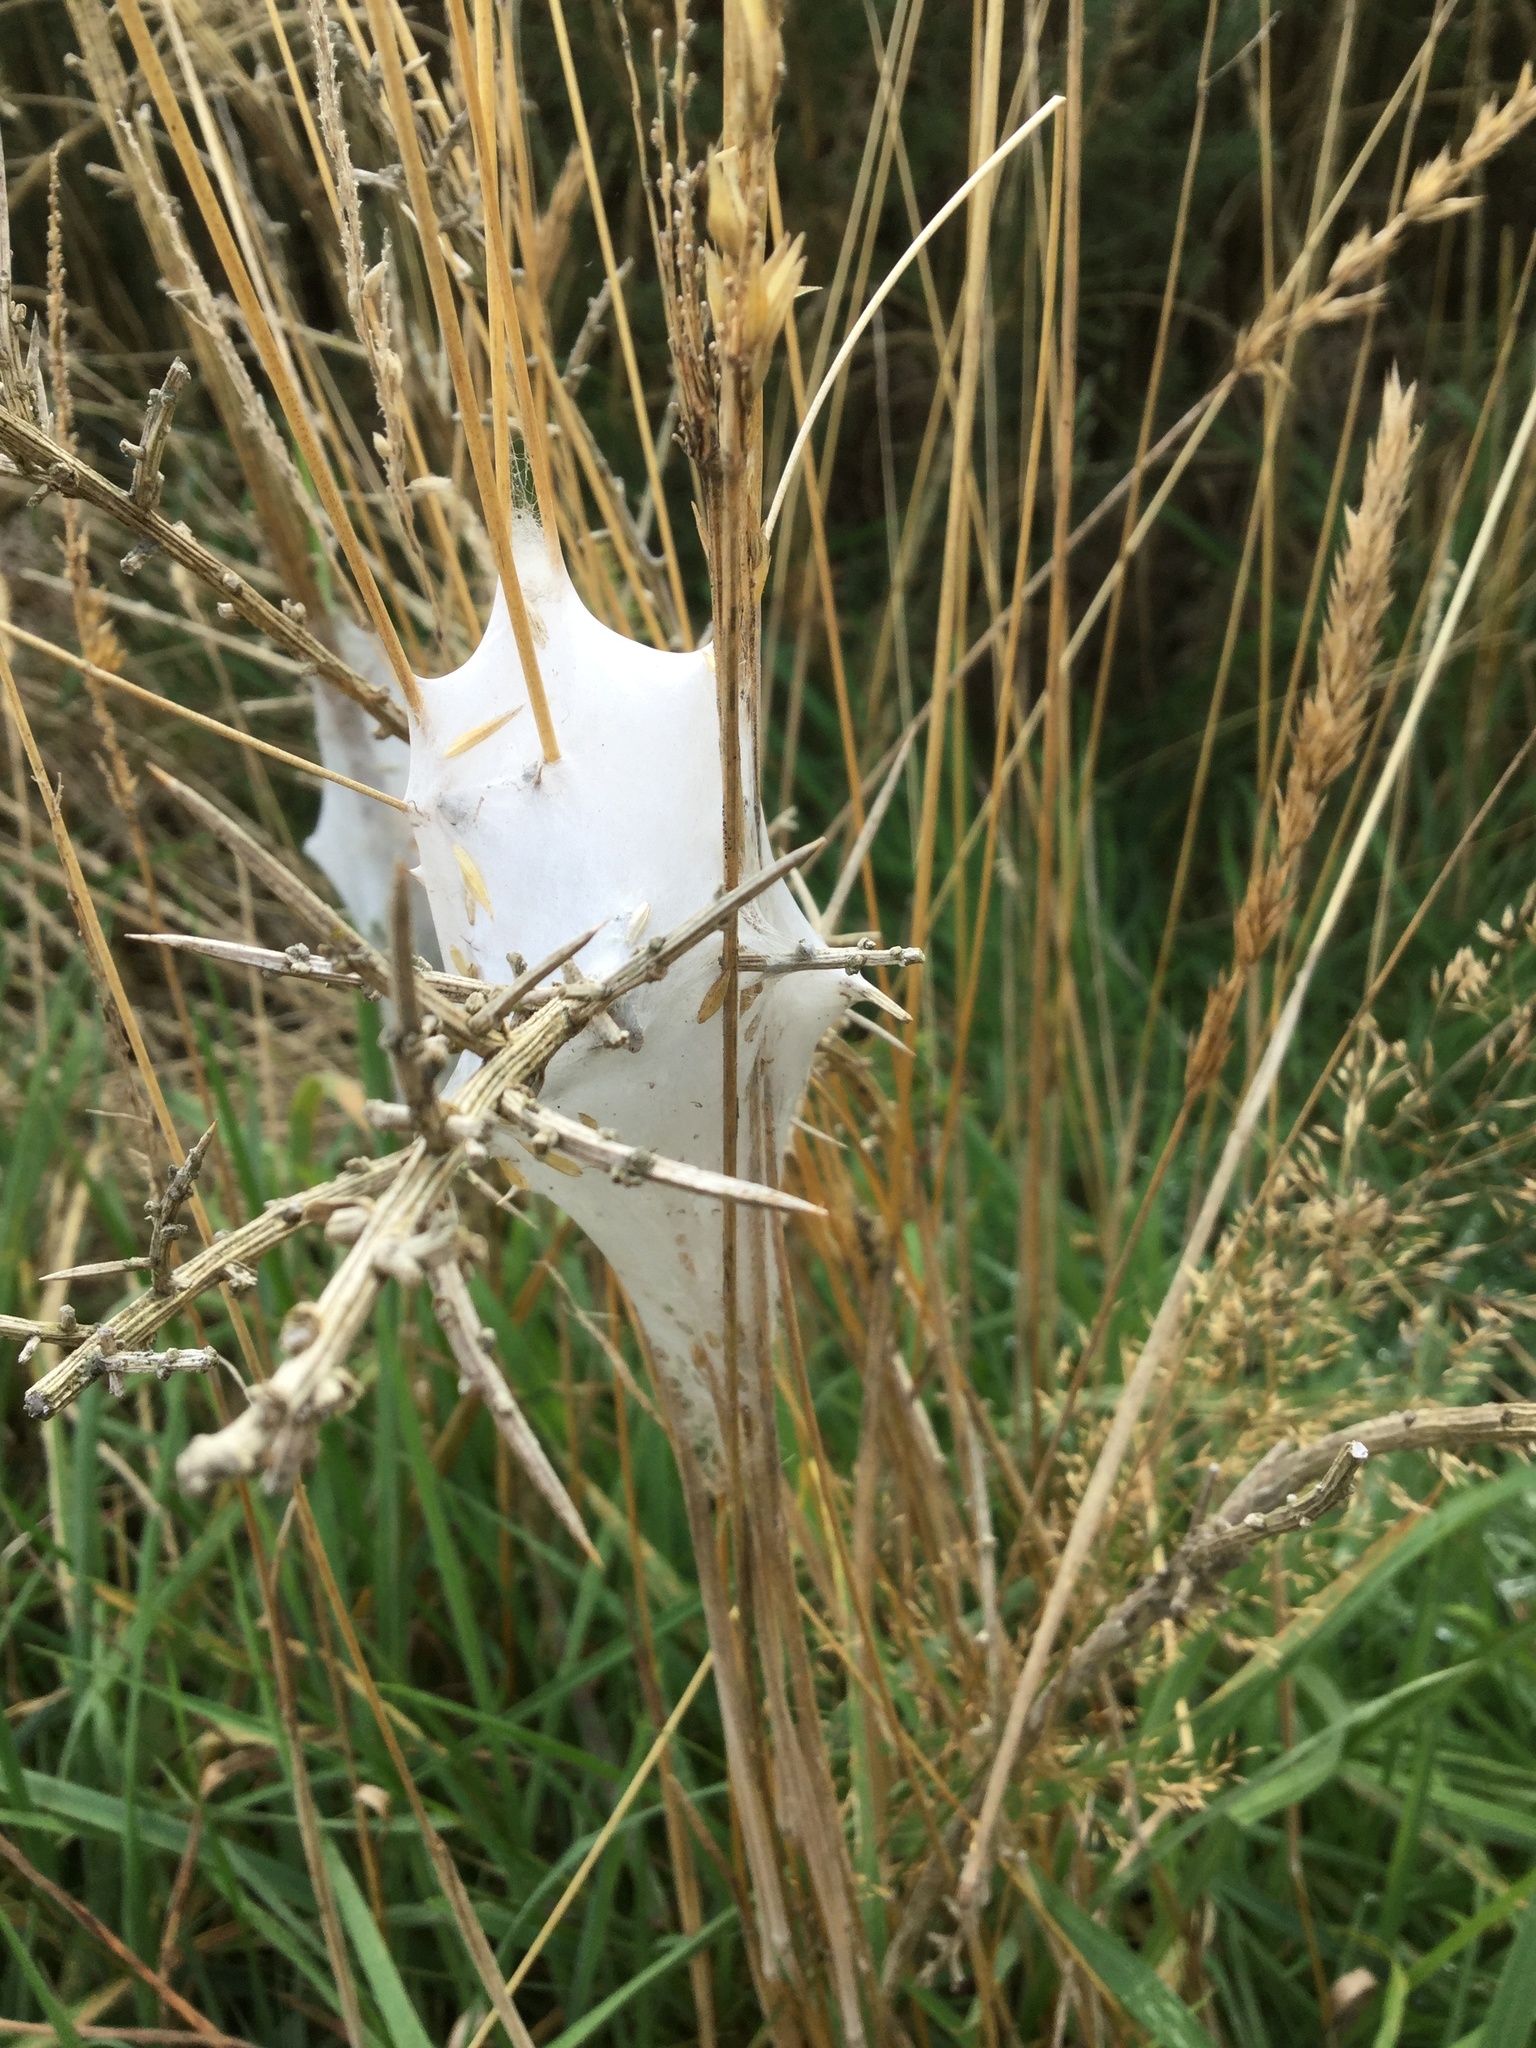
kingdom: Animalia
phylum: Arthropoda
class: Arachnida
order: Araneae
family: Pisauridae
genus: Dolomedes
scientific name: Dolomedes minor
